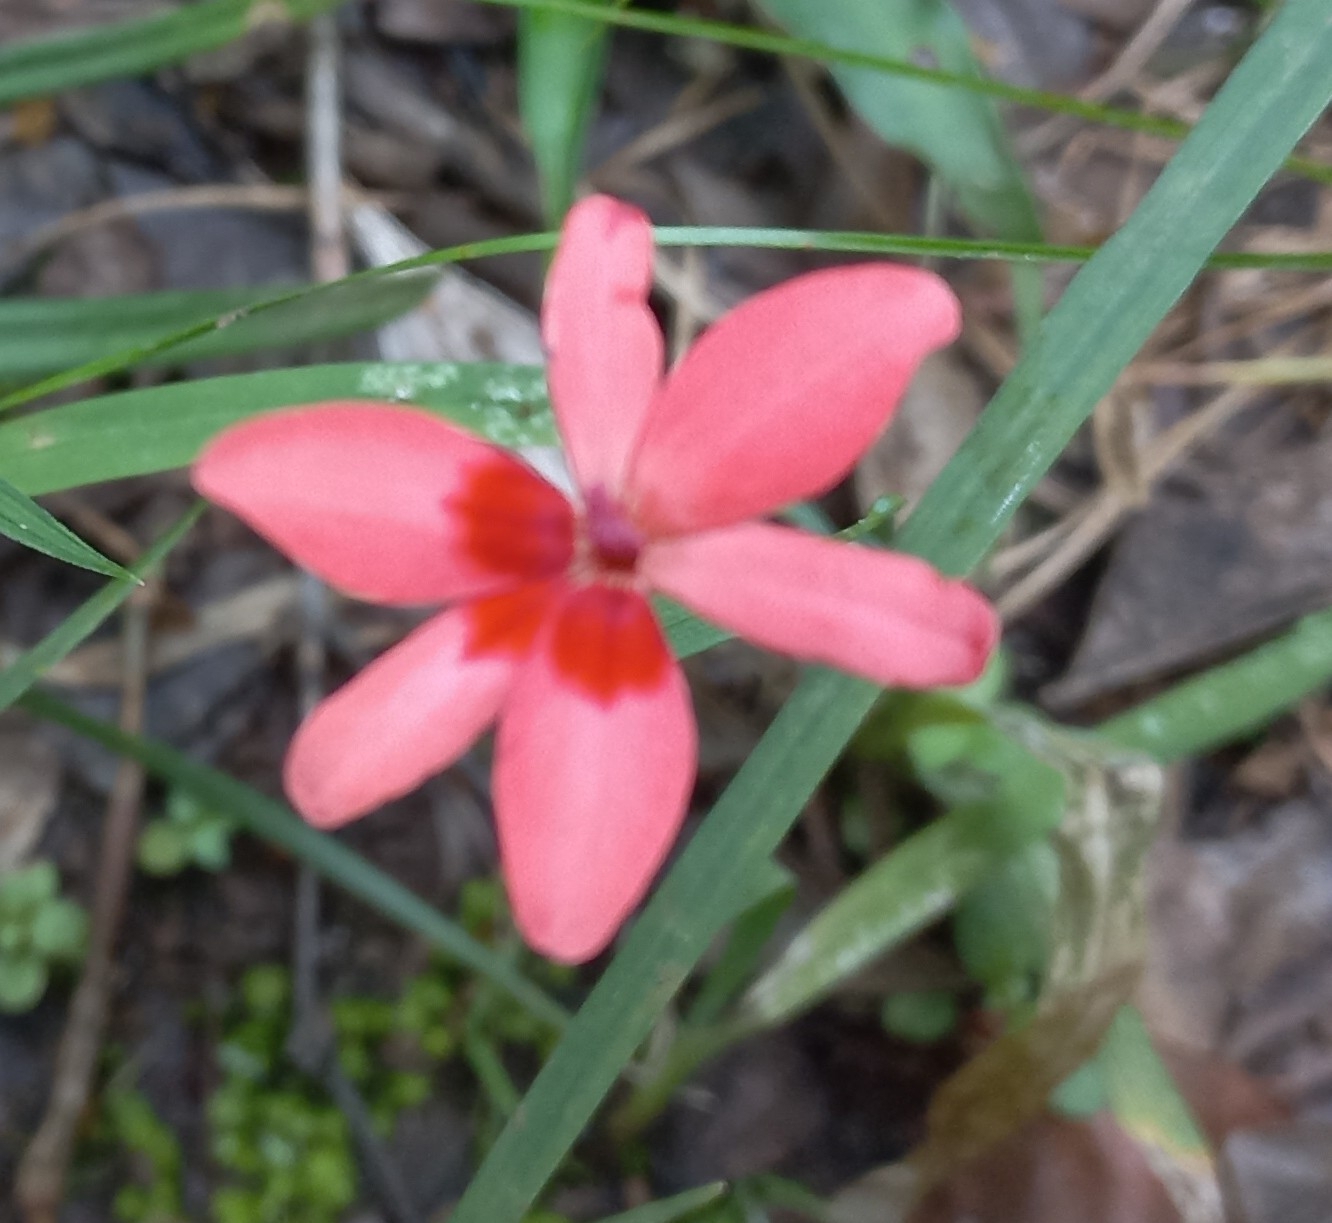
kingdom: Plantae
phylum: Tracheophyta
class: Liliopsida
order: Asparagales
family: Iridaceae
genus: Freesia
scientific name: Freesia laxa
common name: False freesia
